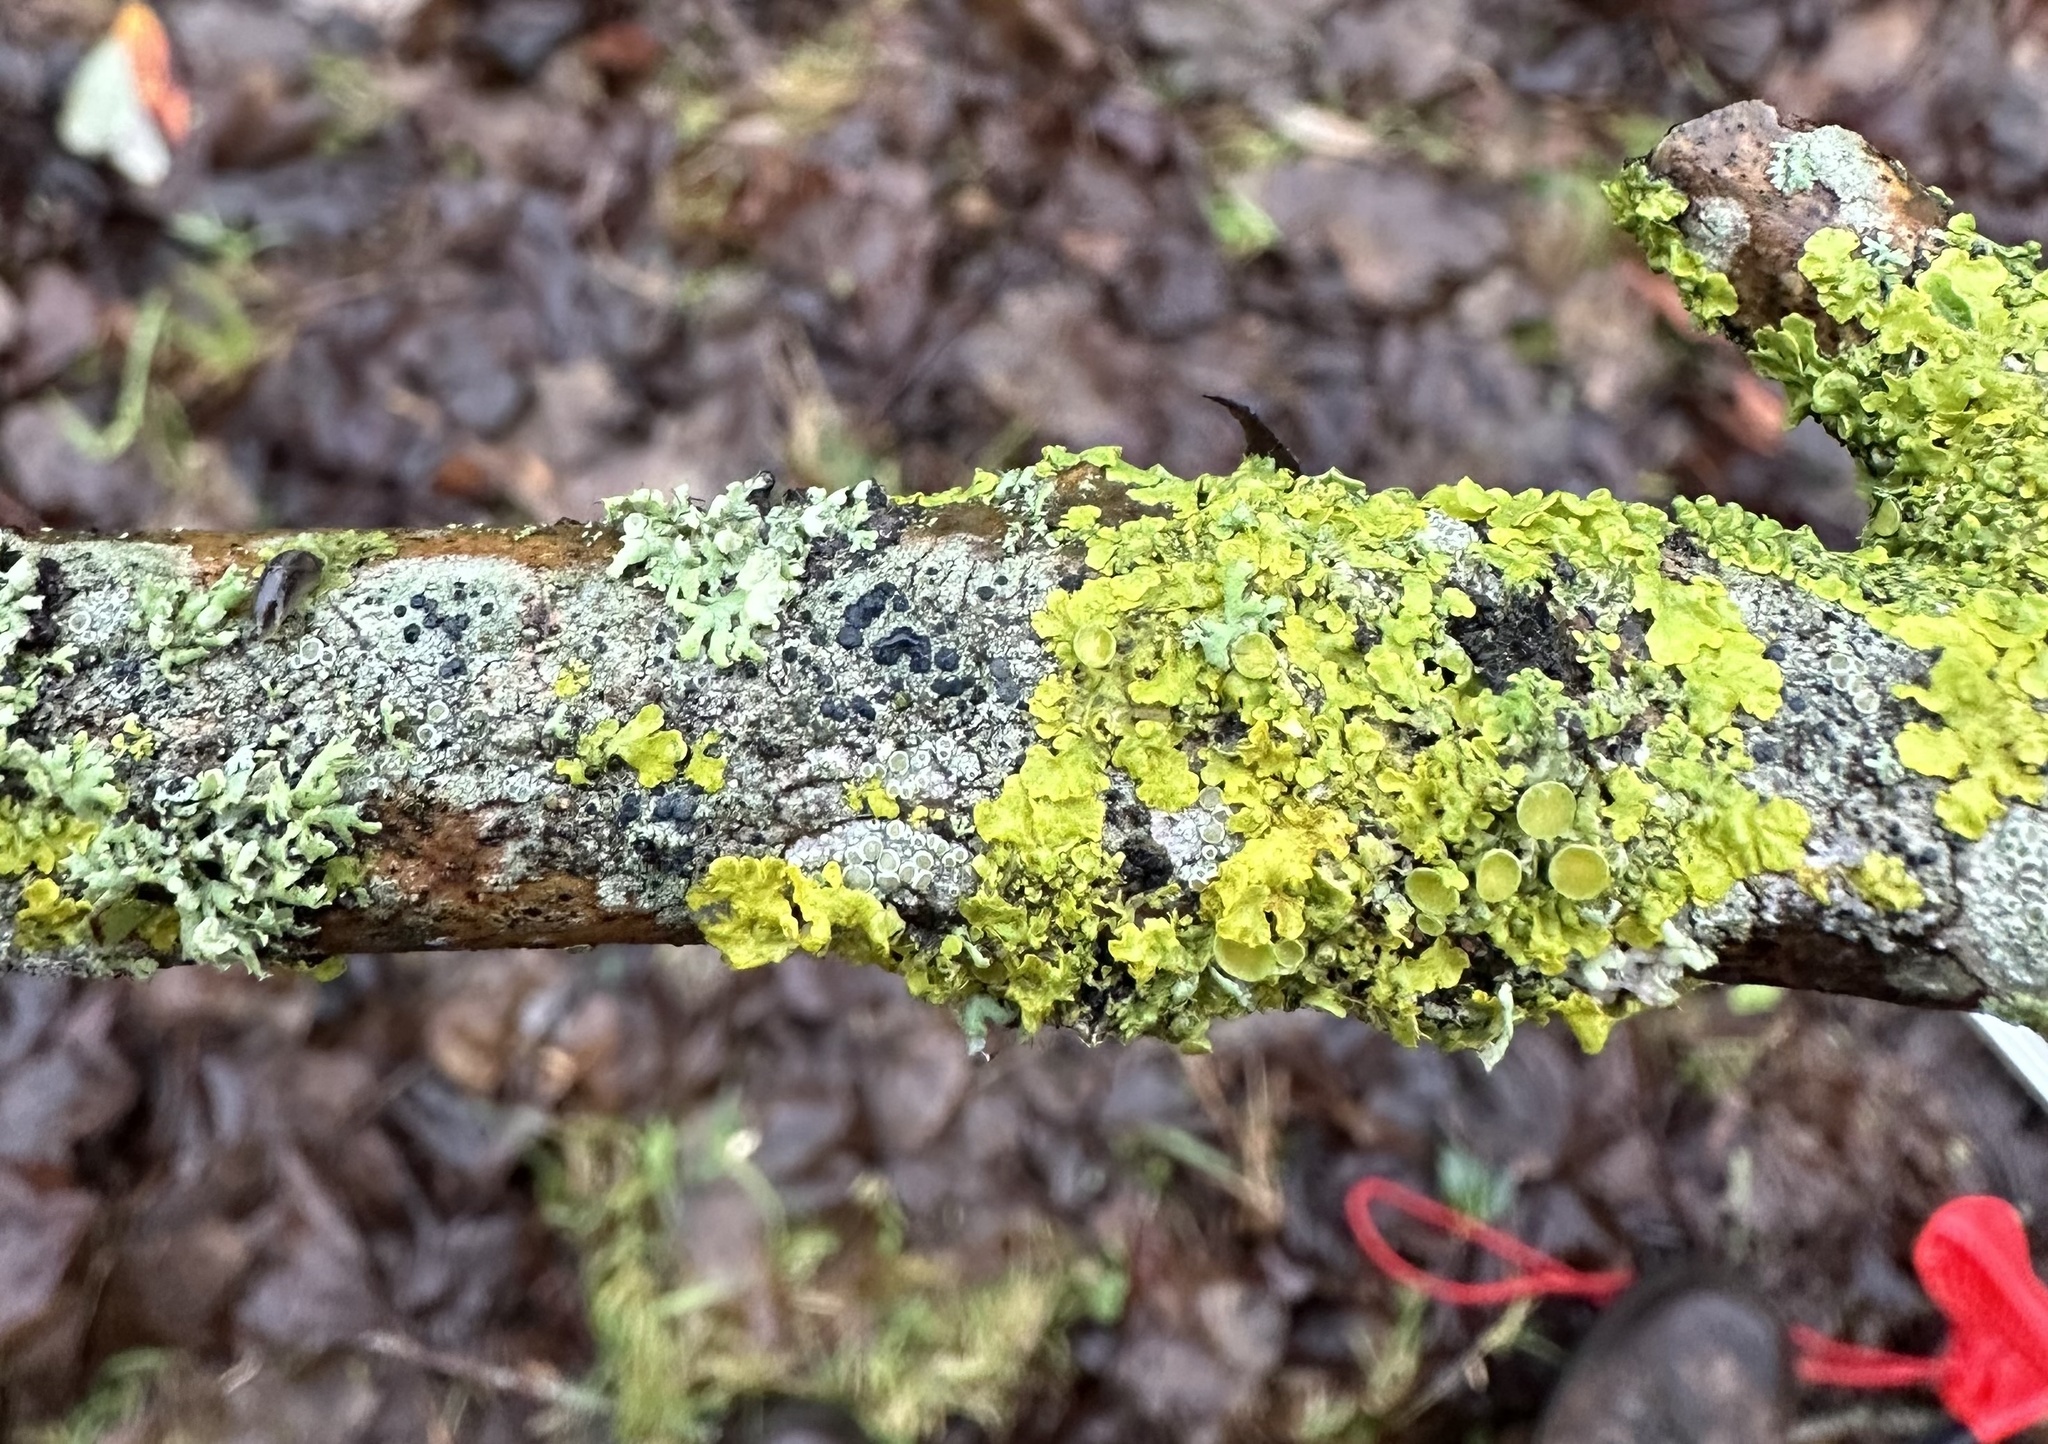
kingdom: Fungi
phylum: Ascomycota
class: Lecanoromycetes
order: Teloschistales
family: Teloschistaceae
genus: Xanthoria
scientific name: Xanthoria parietina
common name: Common orange lichen
